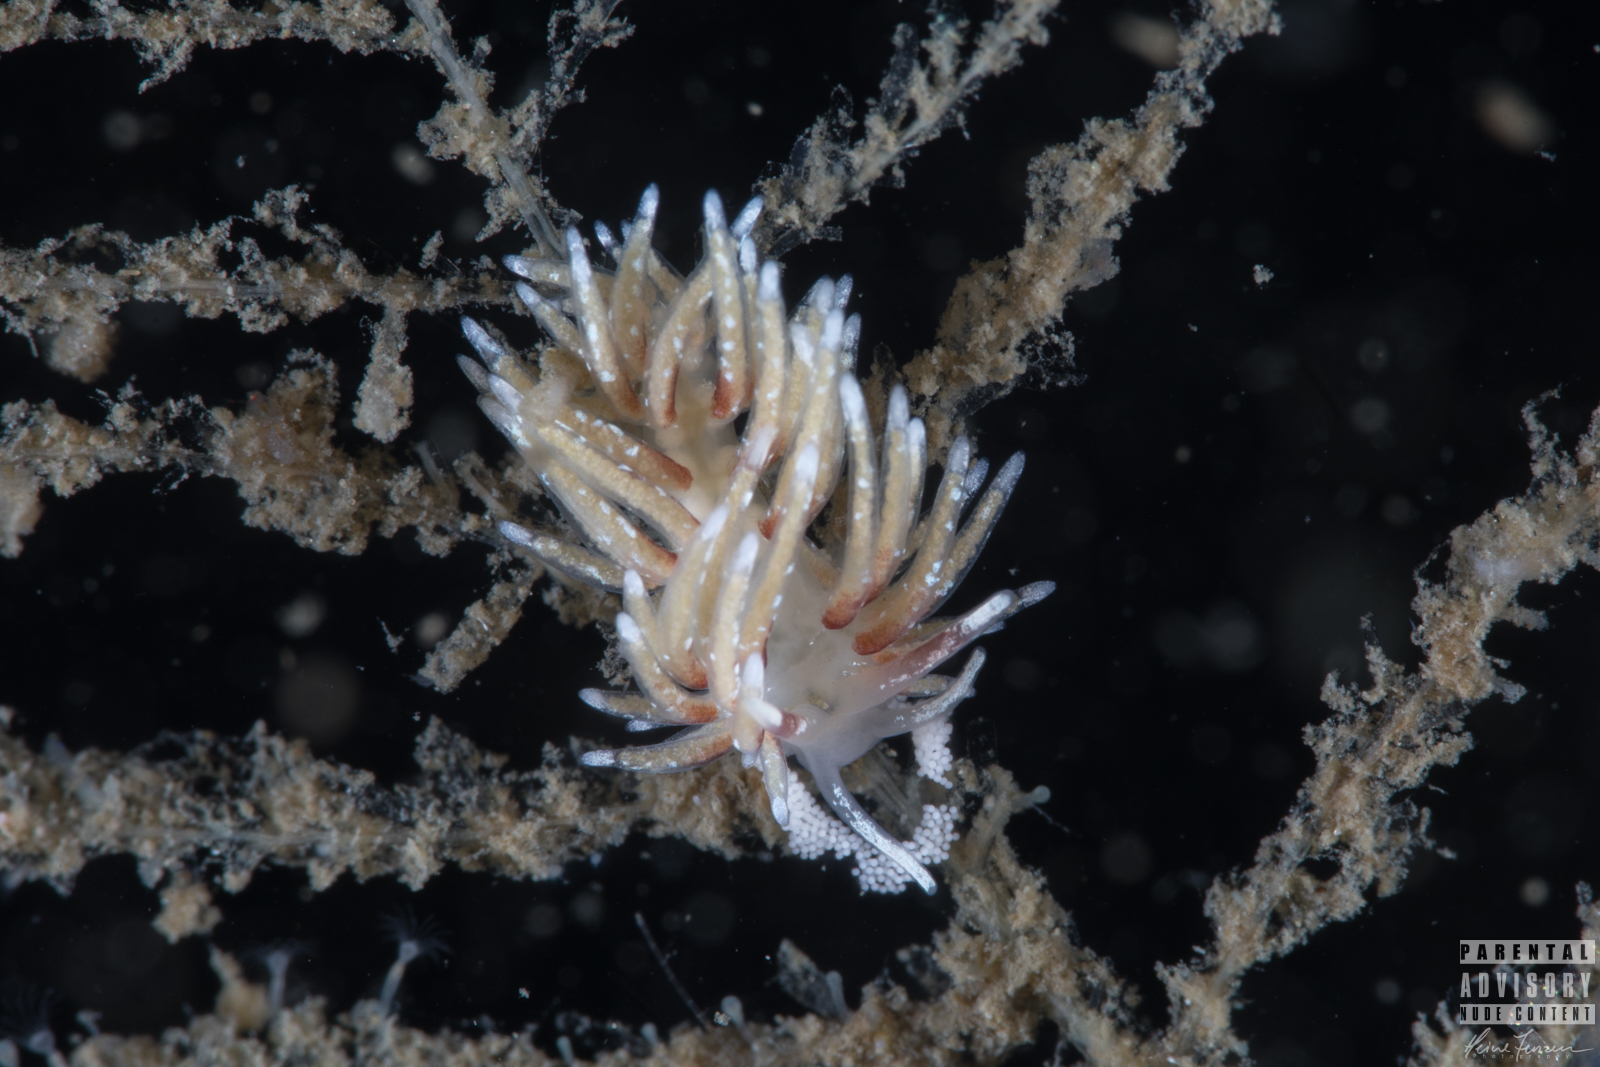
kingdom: Animalia
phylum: Mollusca
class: Gastropoda
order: Nudibranchia
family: Trinchesiidae
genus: Rubramoena
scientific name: Rubramoena rubescens
